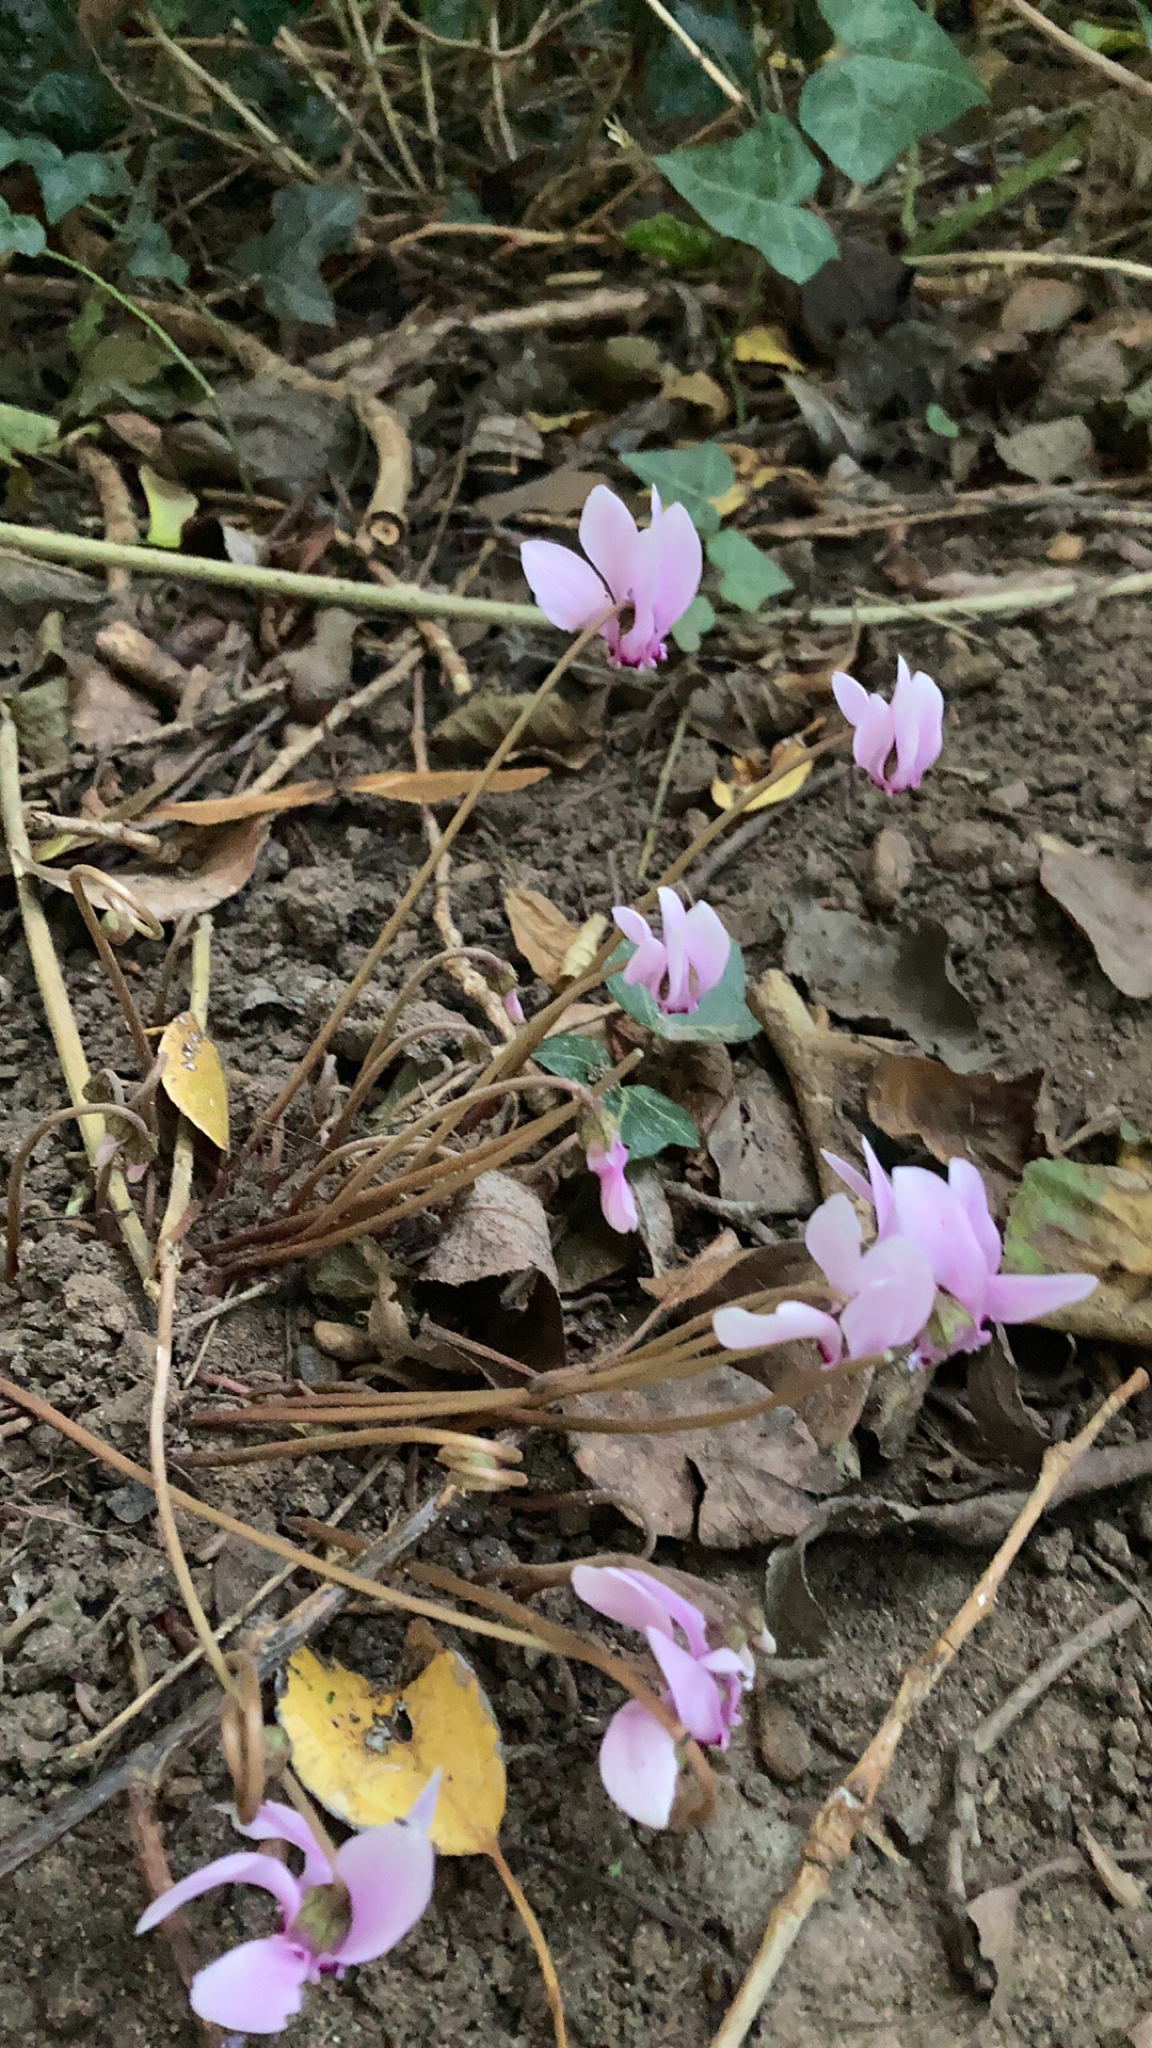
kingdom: Plantae
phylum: Tracheophyta
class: Magnoliopsida
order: Ericales
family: Primulaceae
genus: Cyclamen
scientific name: Cyclamen hederifolium
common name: Sowbread
